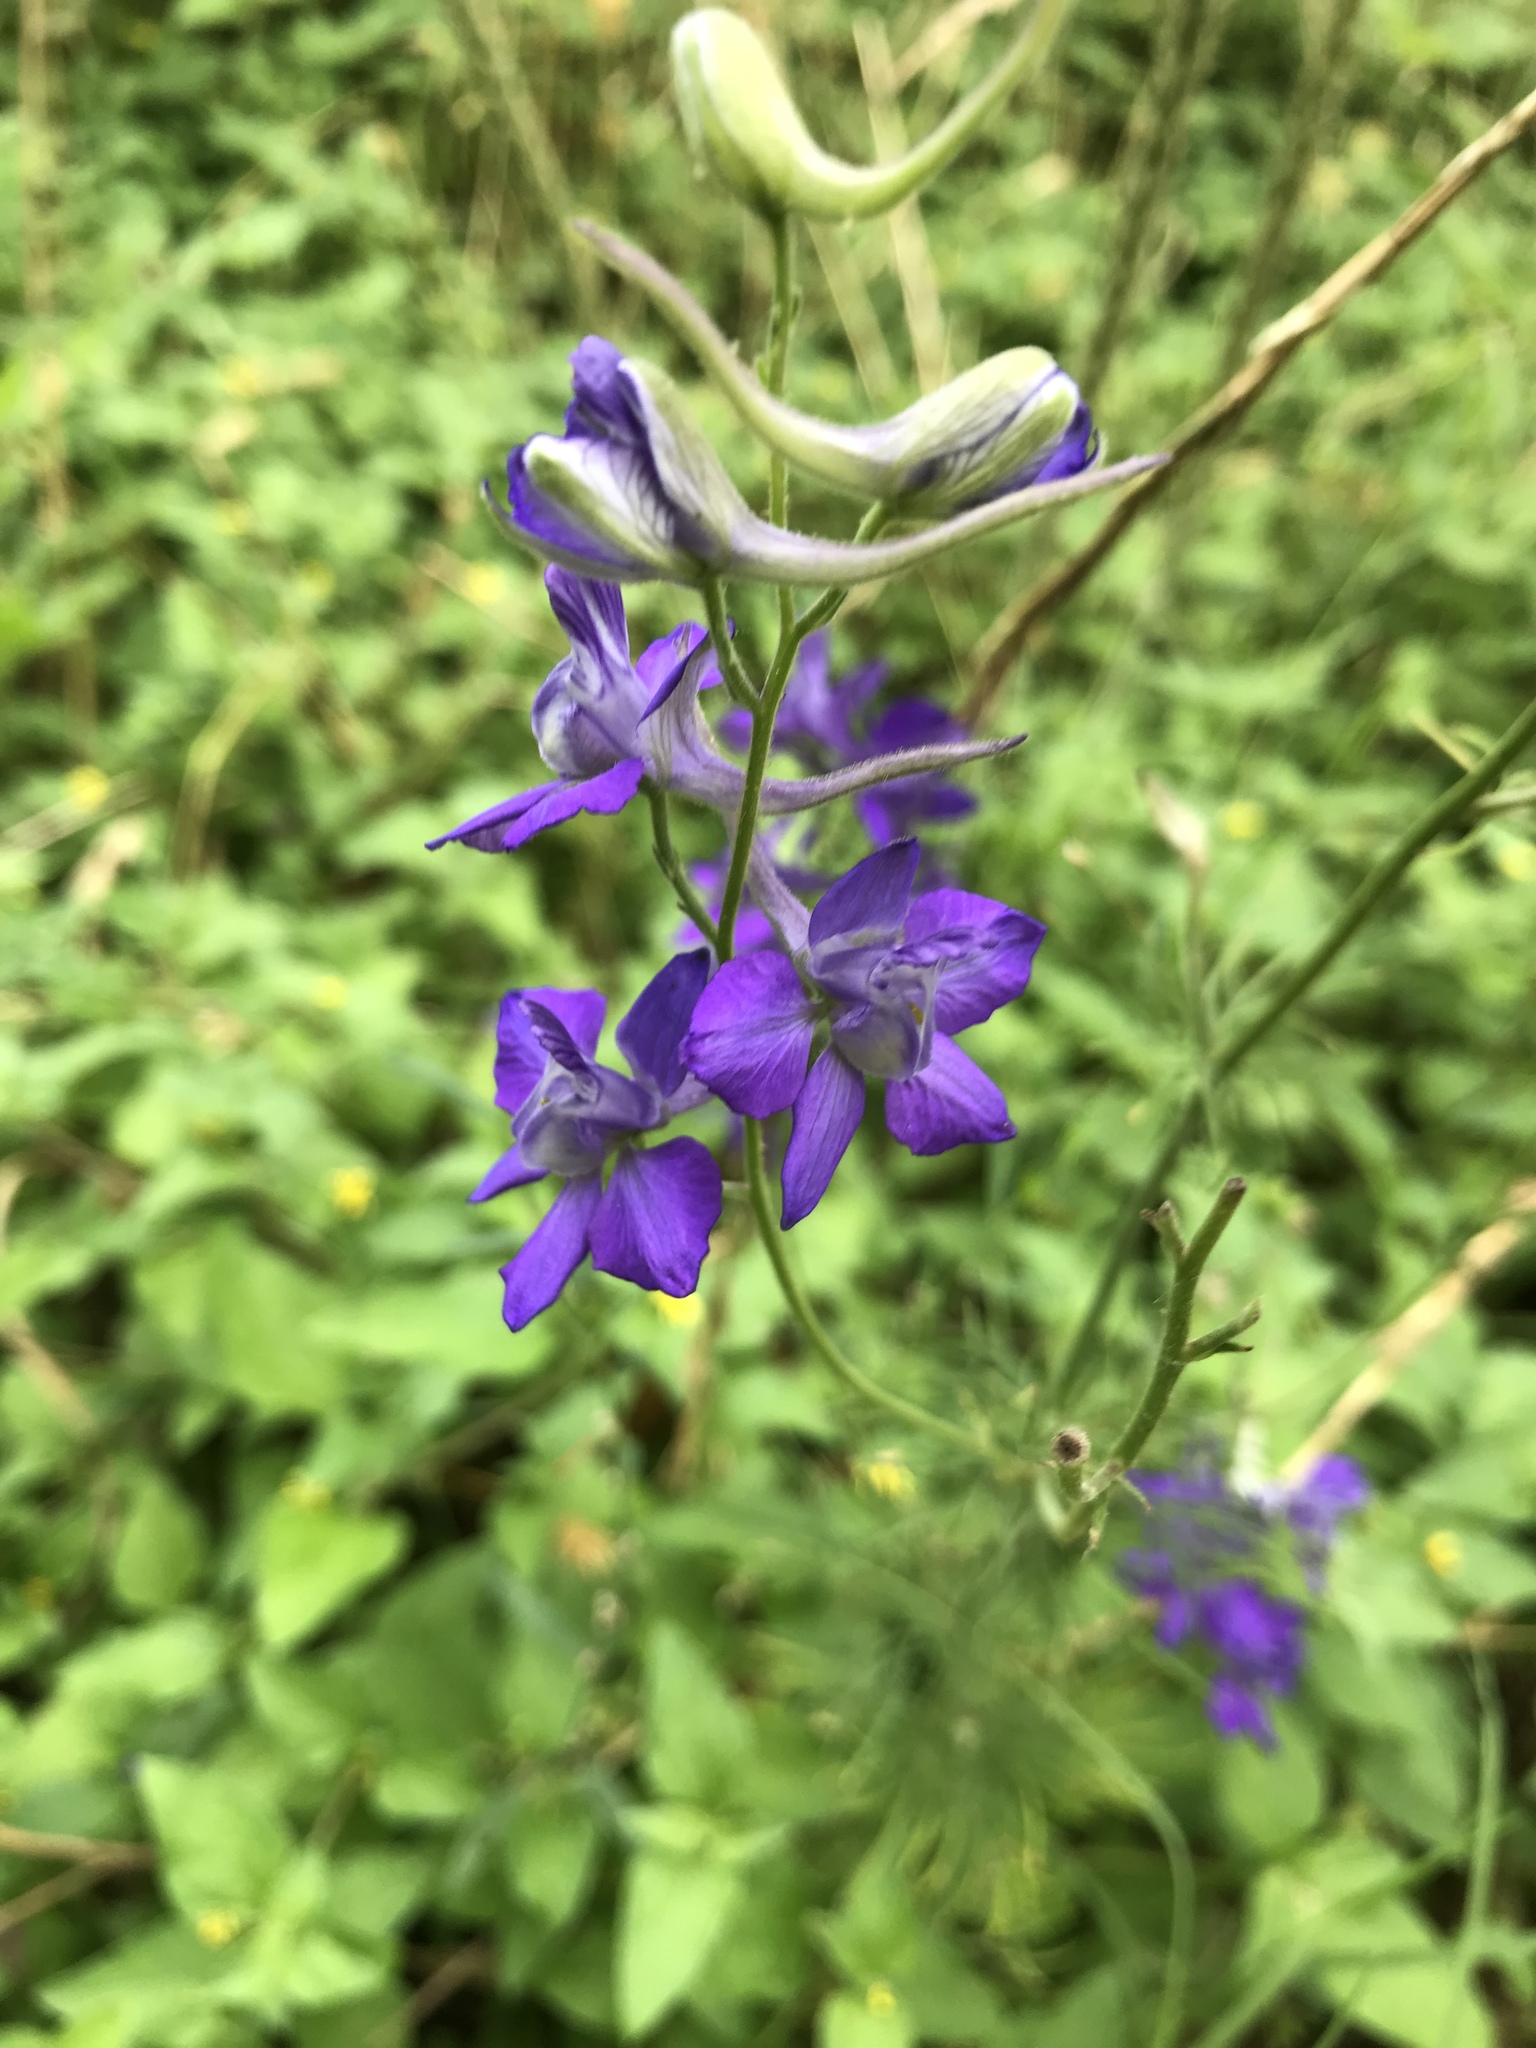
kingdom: Plantae
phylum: Tracheophyta
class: Magnoliopsida
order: Ranunculales
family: Ranunculaceae
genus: Delphinium
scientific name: Delphinium ajacis
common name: Doubtful knight's-spur
